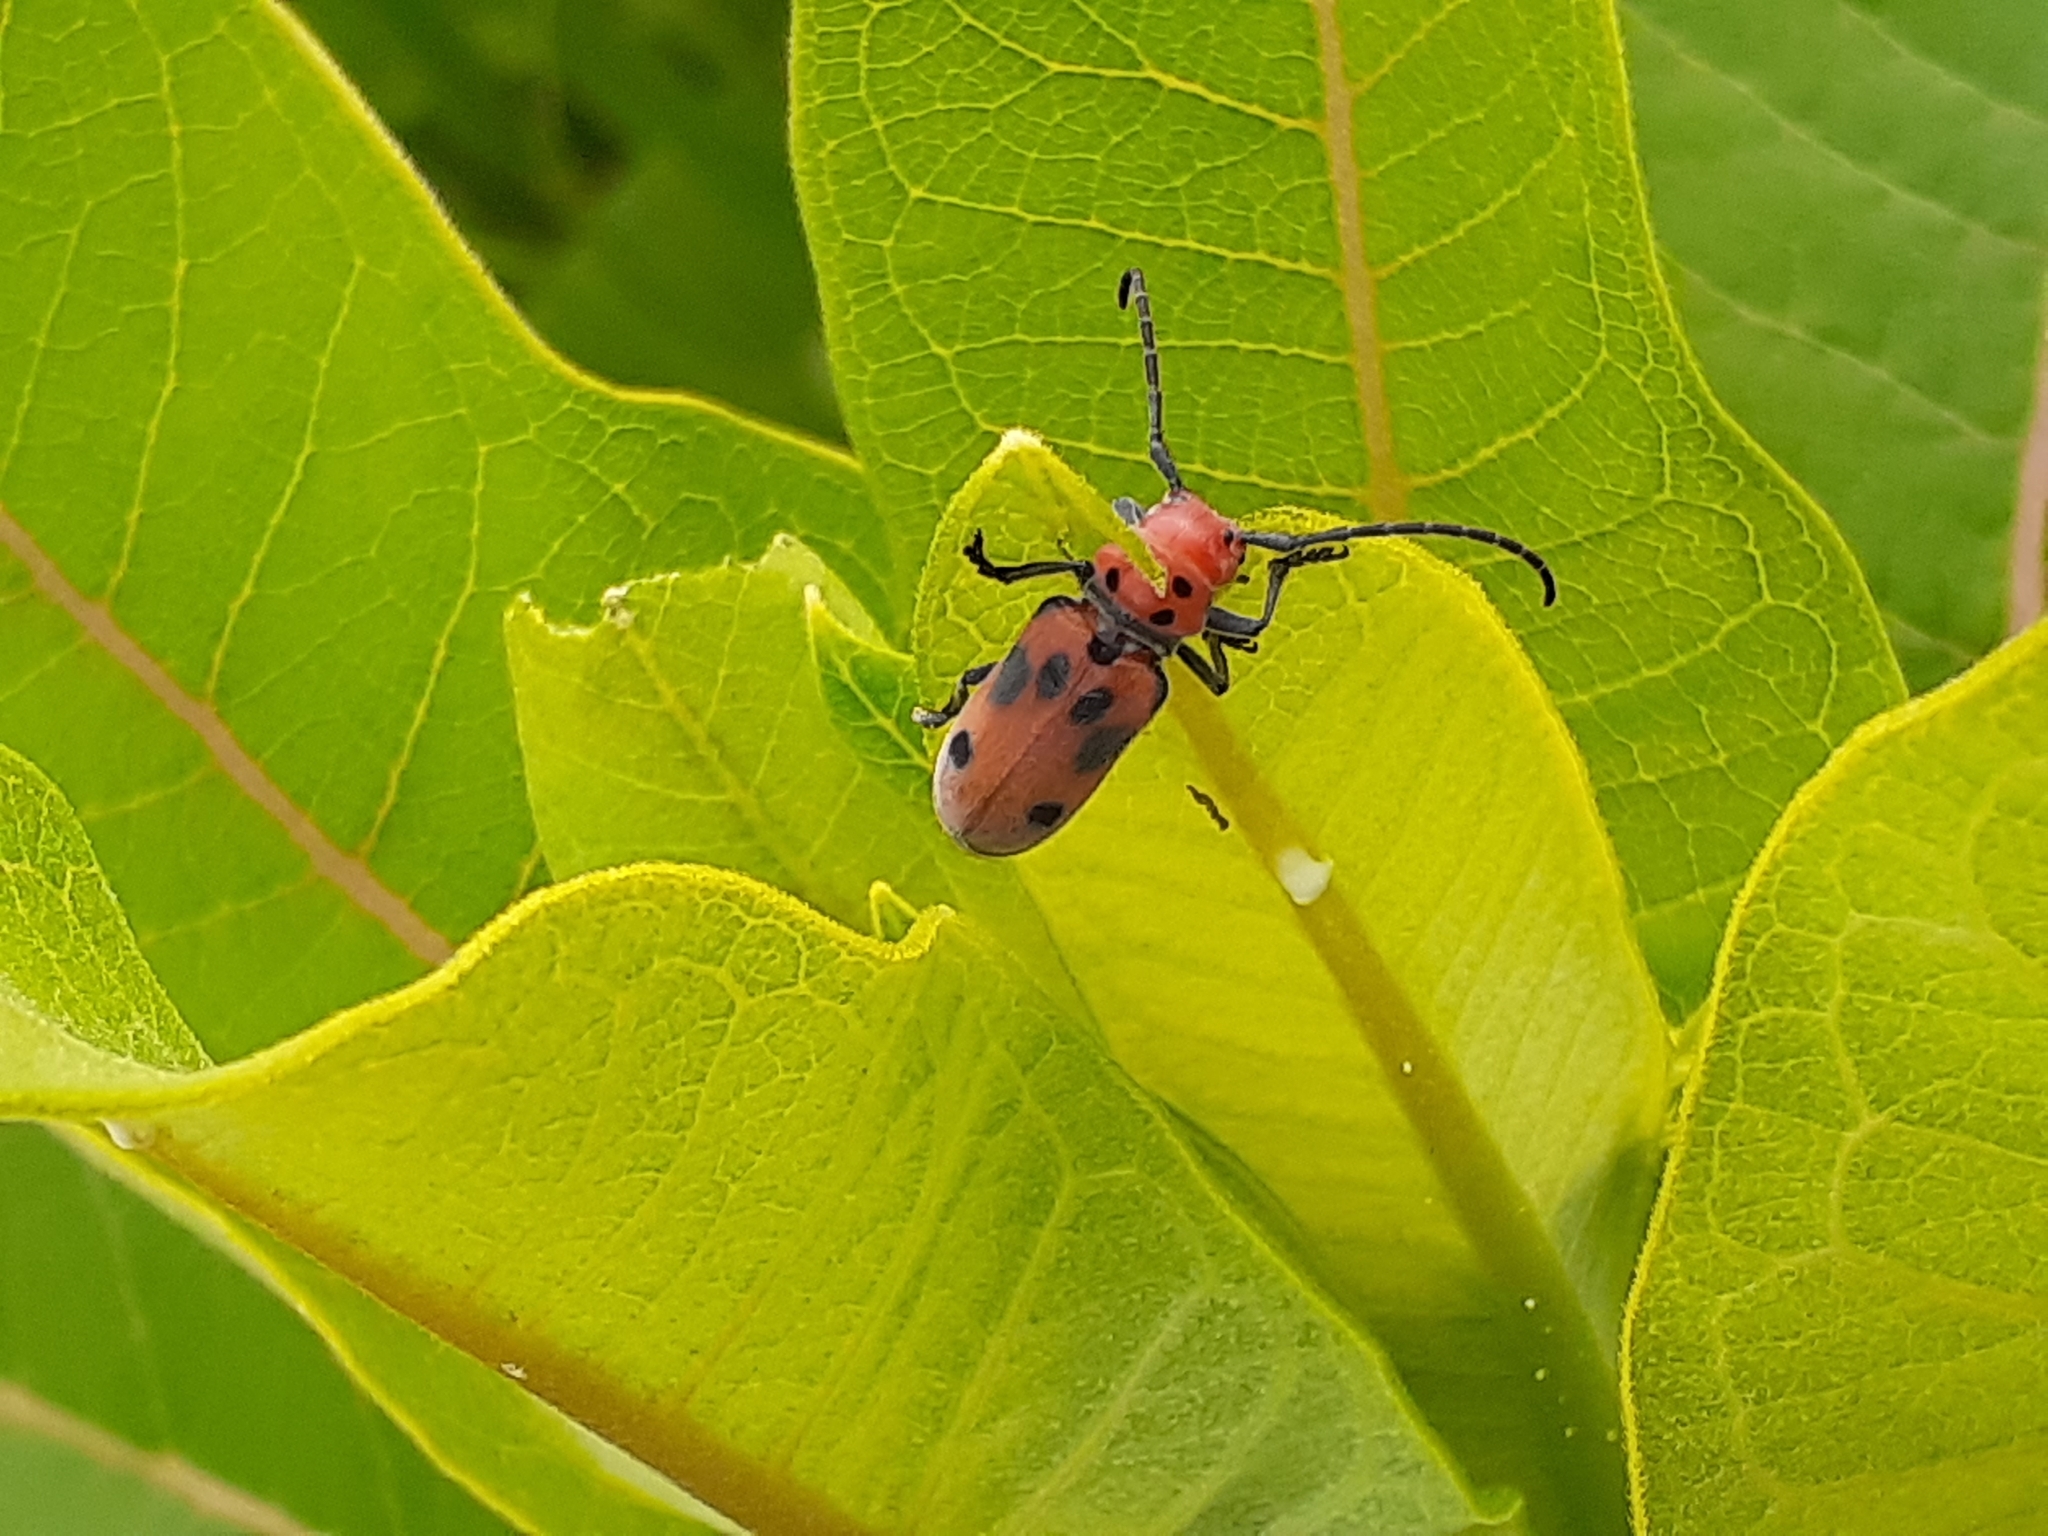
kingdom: Animalia
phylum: Arthropoda
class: Insecta
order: Coleoptera
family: Cerambycidae
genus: Tetraopes
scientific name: Tetraopes tetrophthalmus
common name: Red milkweed beetle
